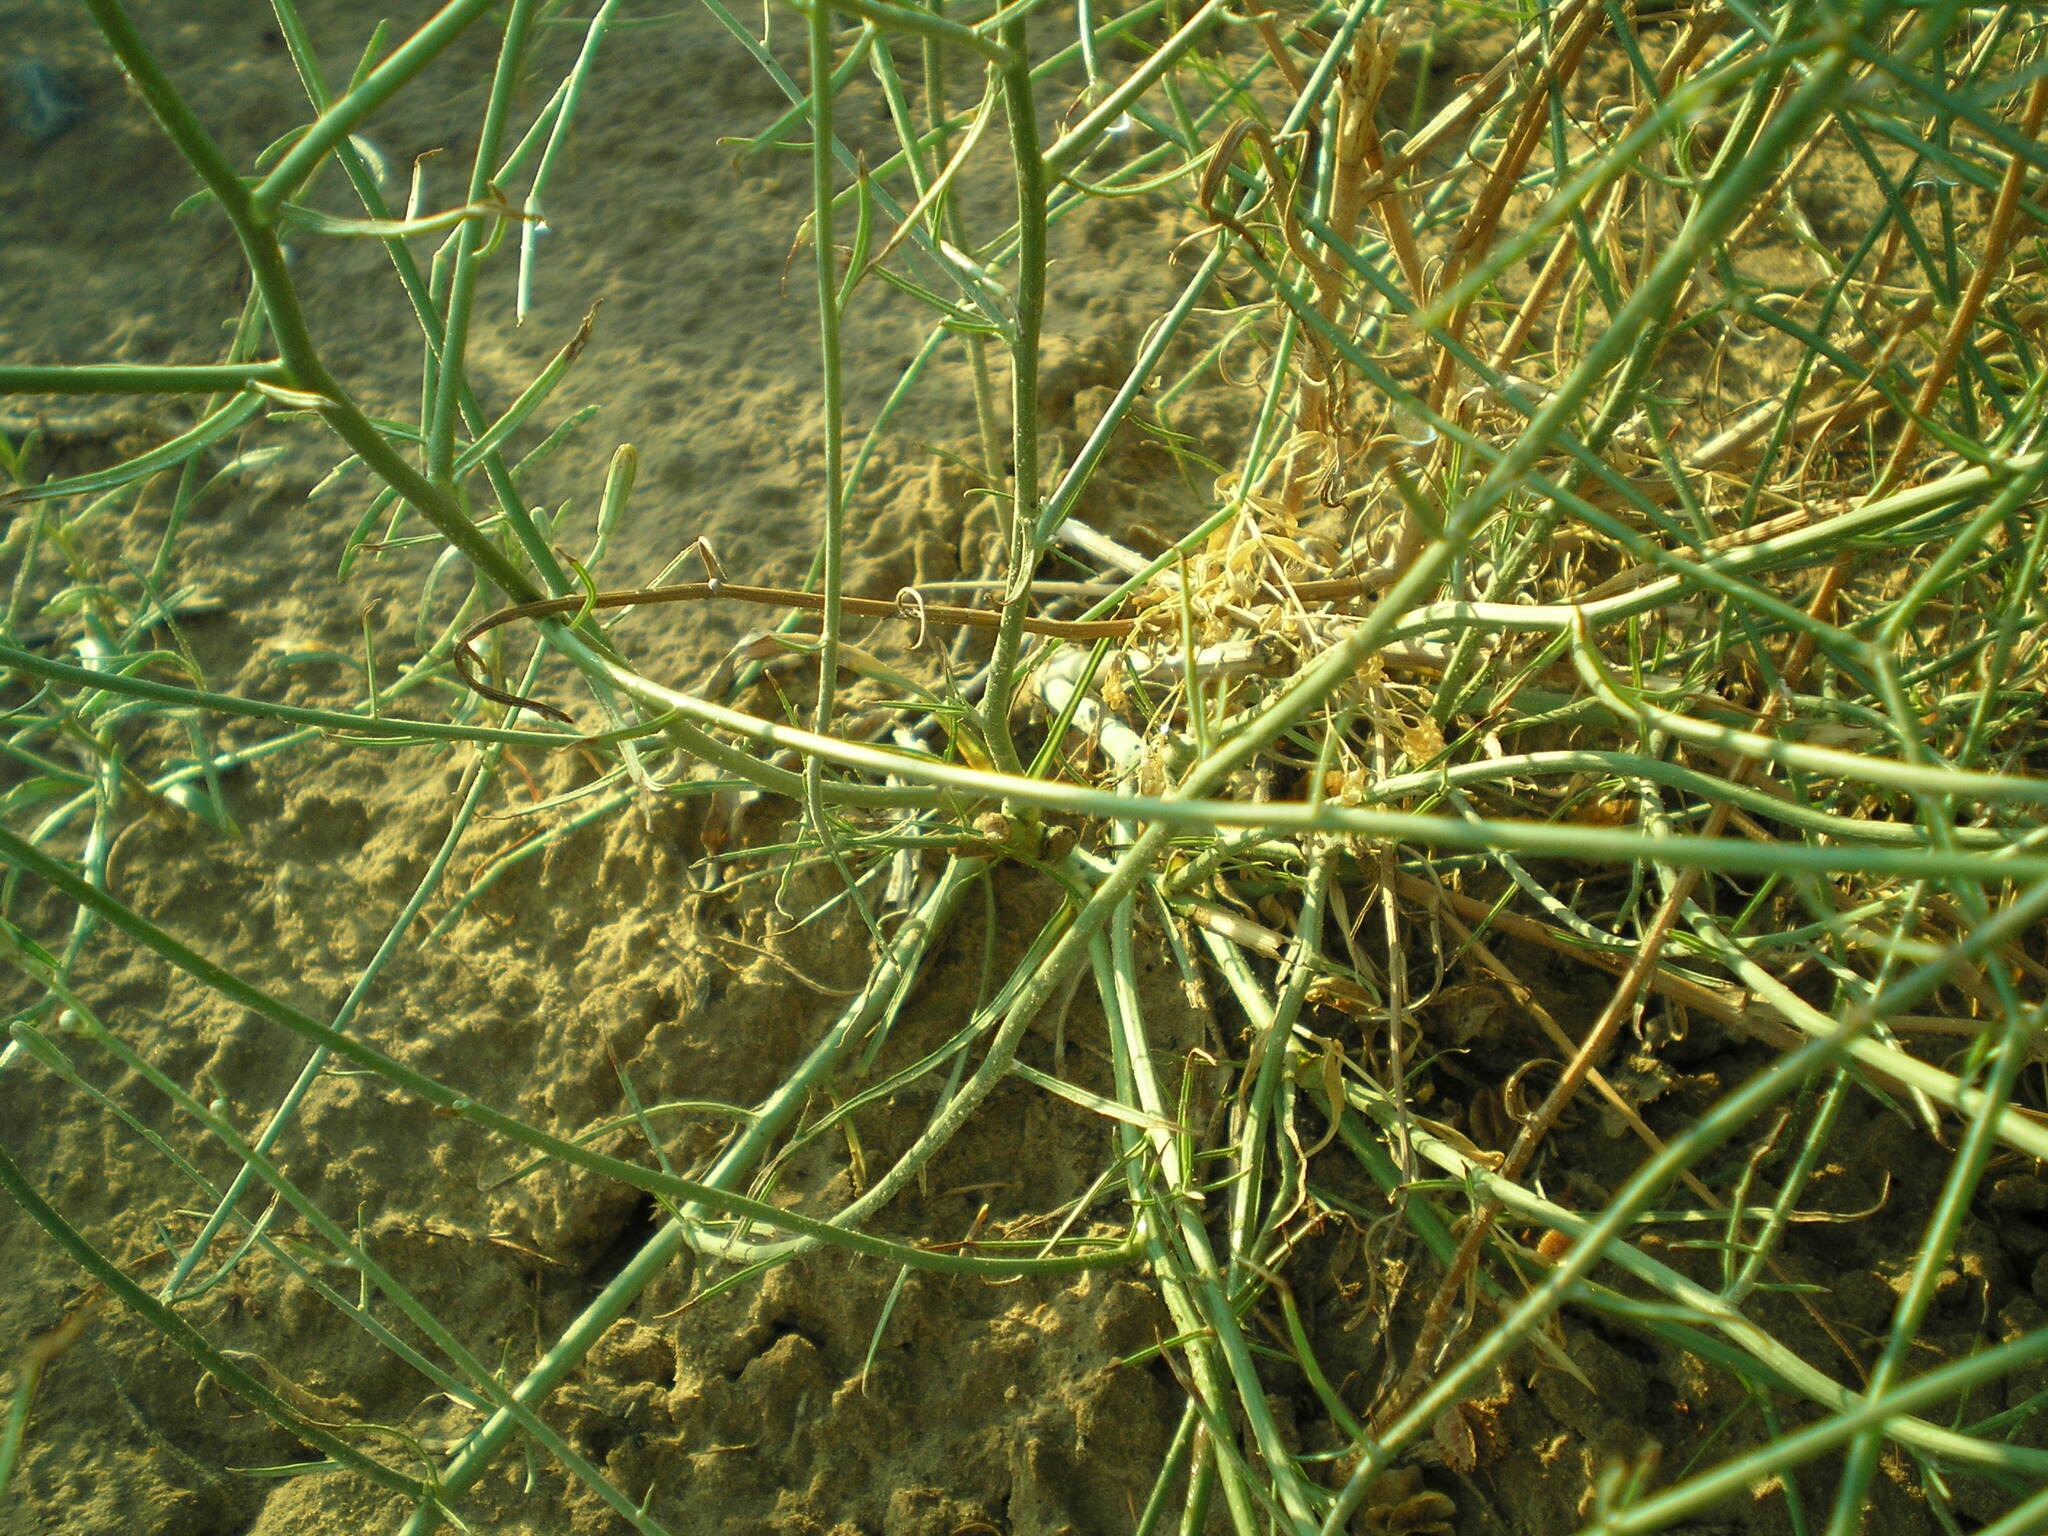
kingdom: Plantae
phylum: Tracheophyta
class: Magnoliopsida
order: Asterales
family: Asteraceae
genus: Chondrilla
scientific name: Chondrilla juncea
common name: Skeleton weed
